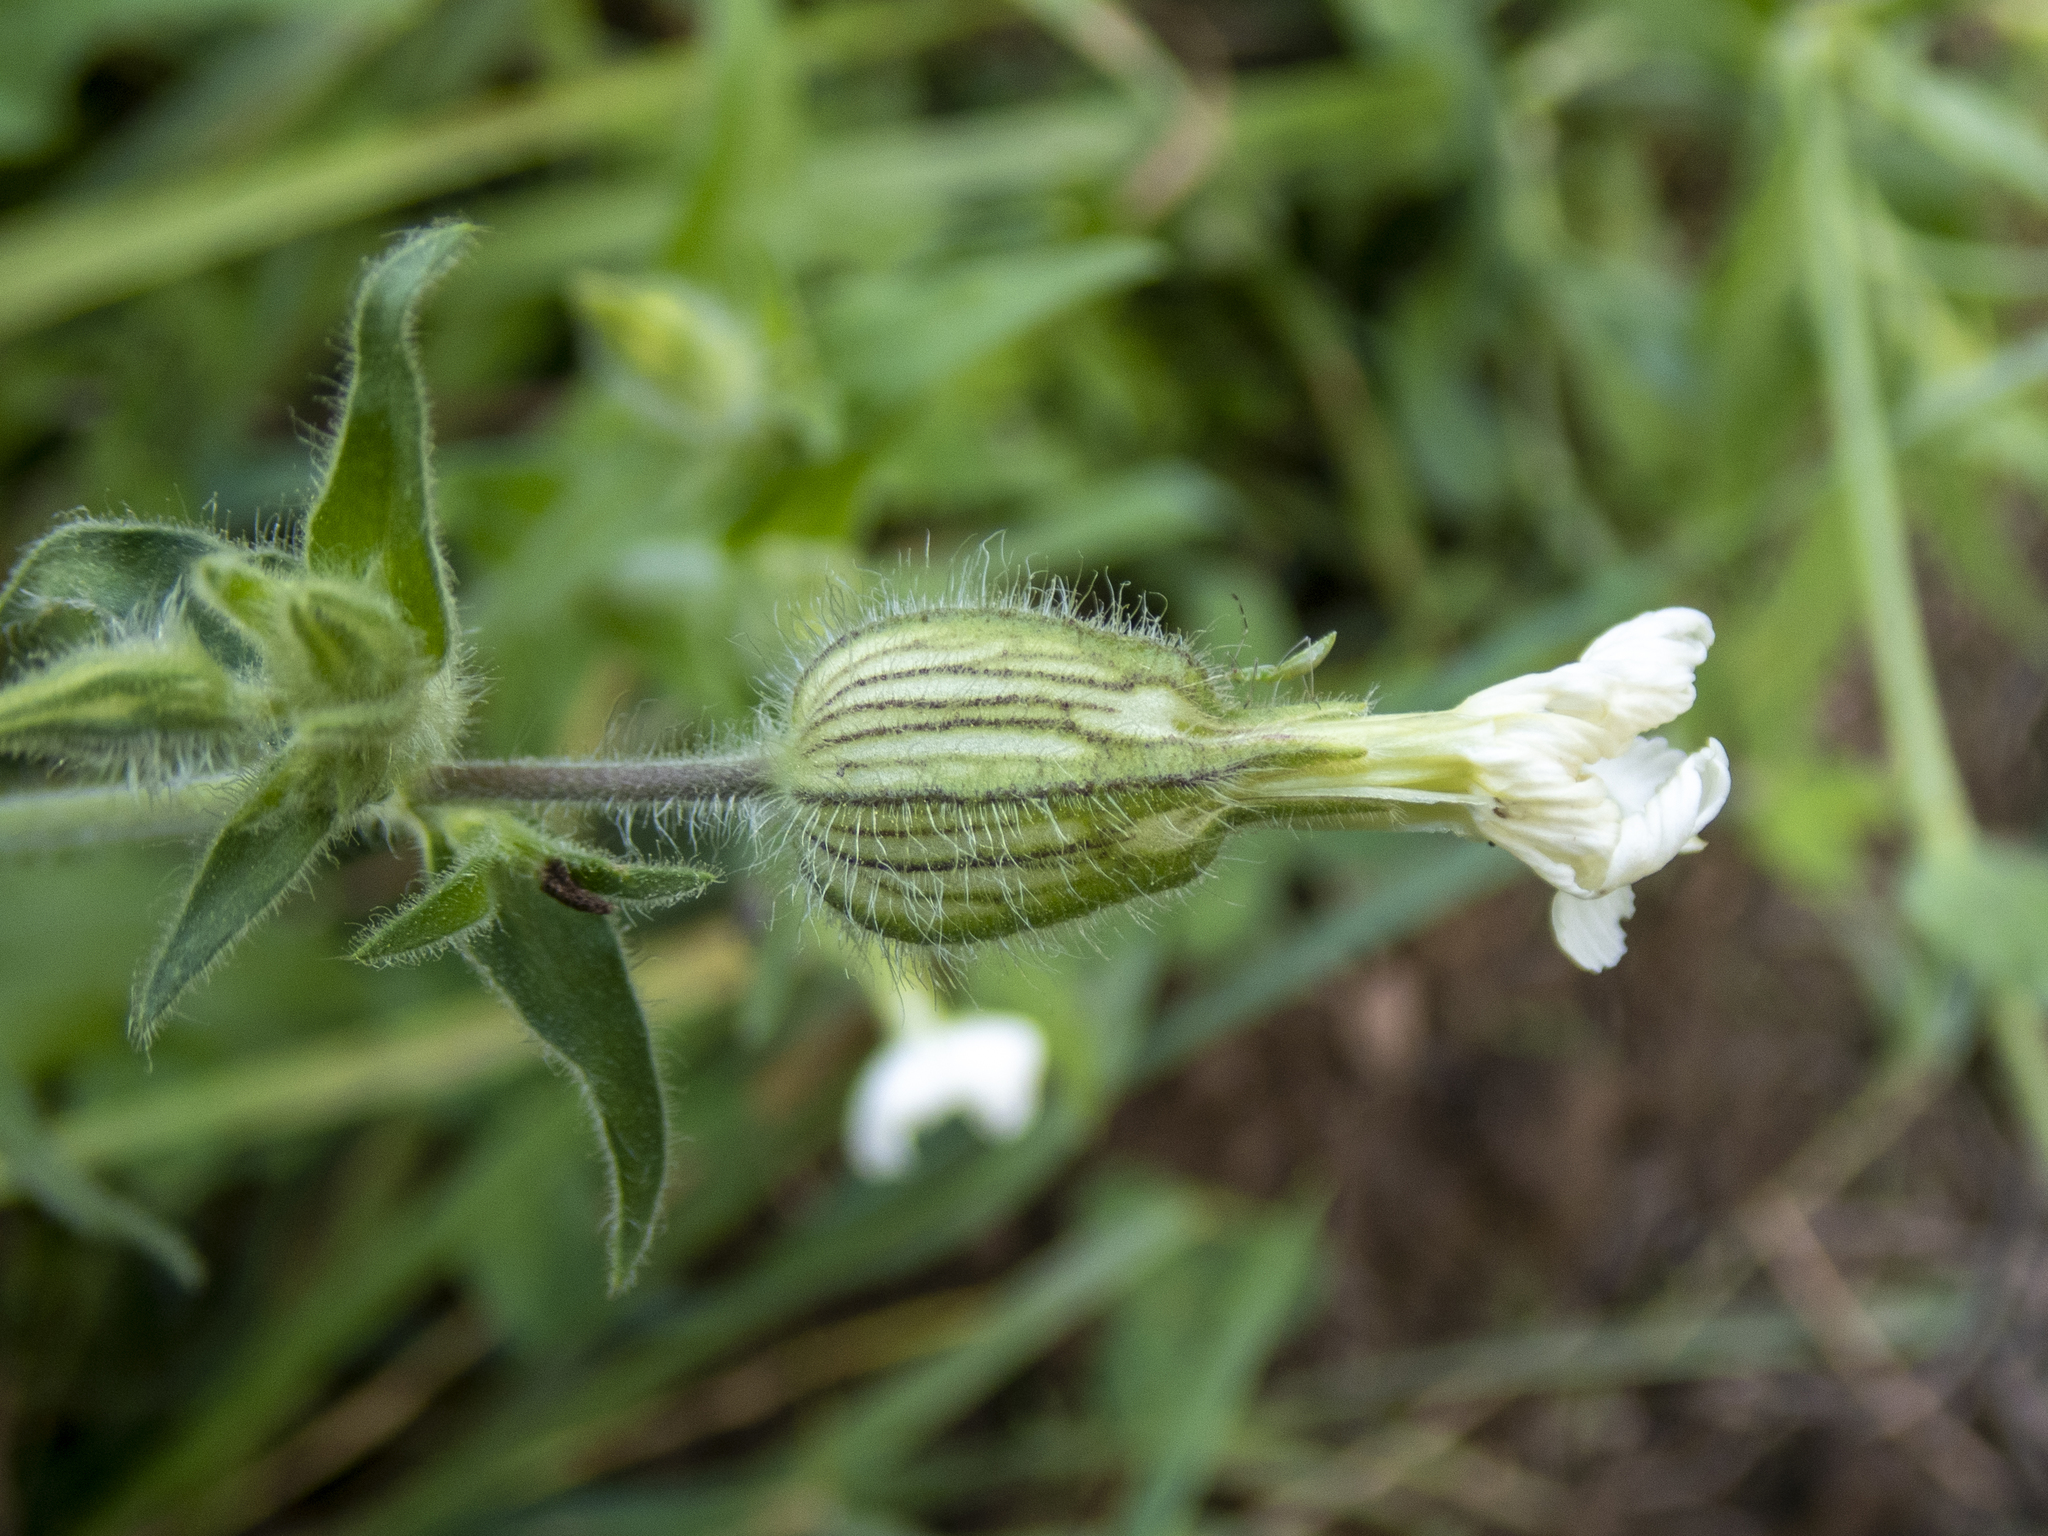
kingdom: Plantae
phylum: Tracheophyta
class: Magnoliopsida
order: Caryophyllales
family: Caryophyllaceae
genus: Silene
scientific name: Silene latifolia
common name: White campion
